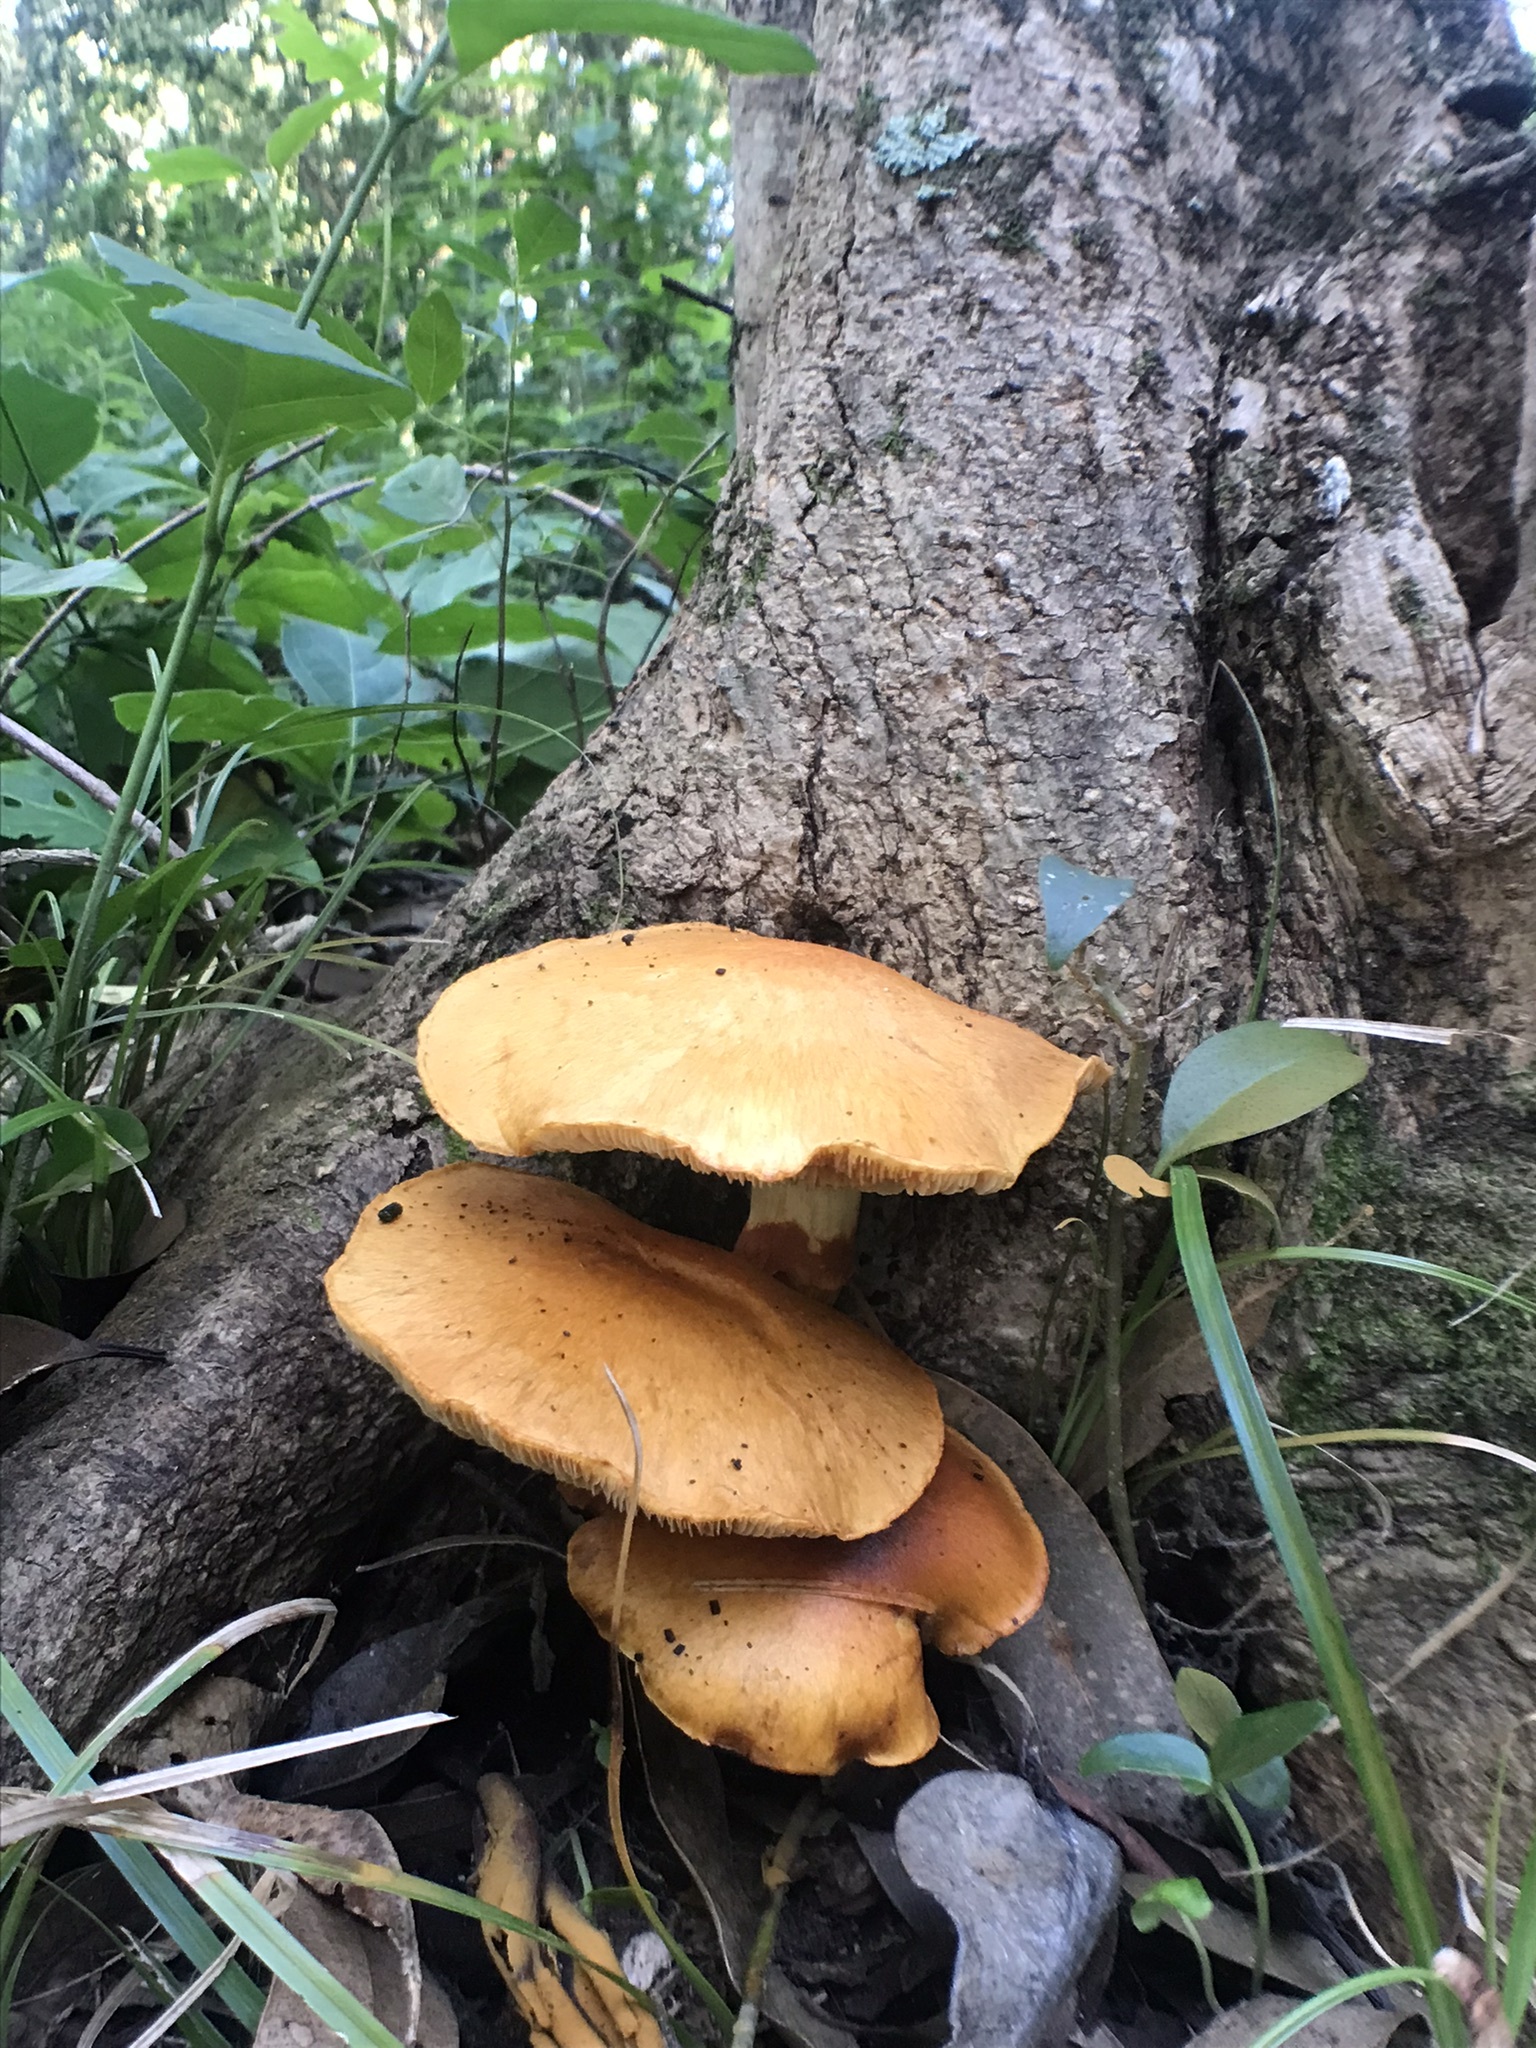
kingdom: Fungi
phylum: Basidiomycota
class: Agaricomycetes
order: Agaricales
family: Hymenogastraceae
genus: Gymnopilus
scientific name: Gymnopilus junonius
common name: Spectacular rustgill
